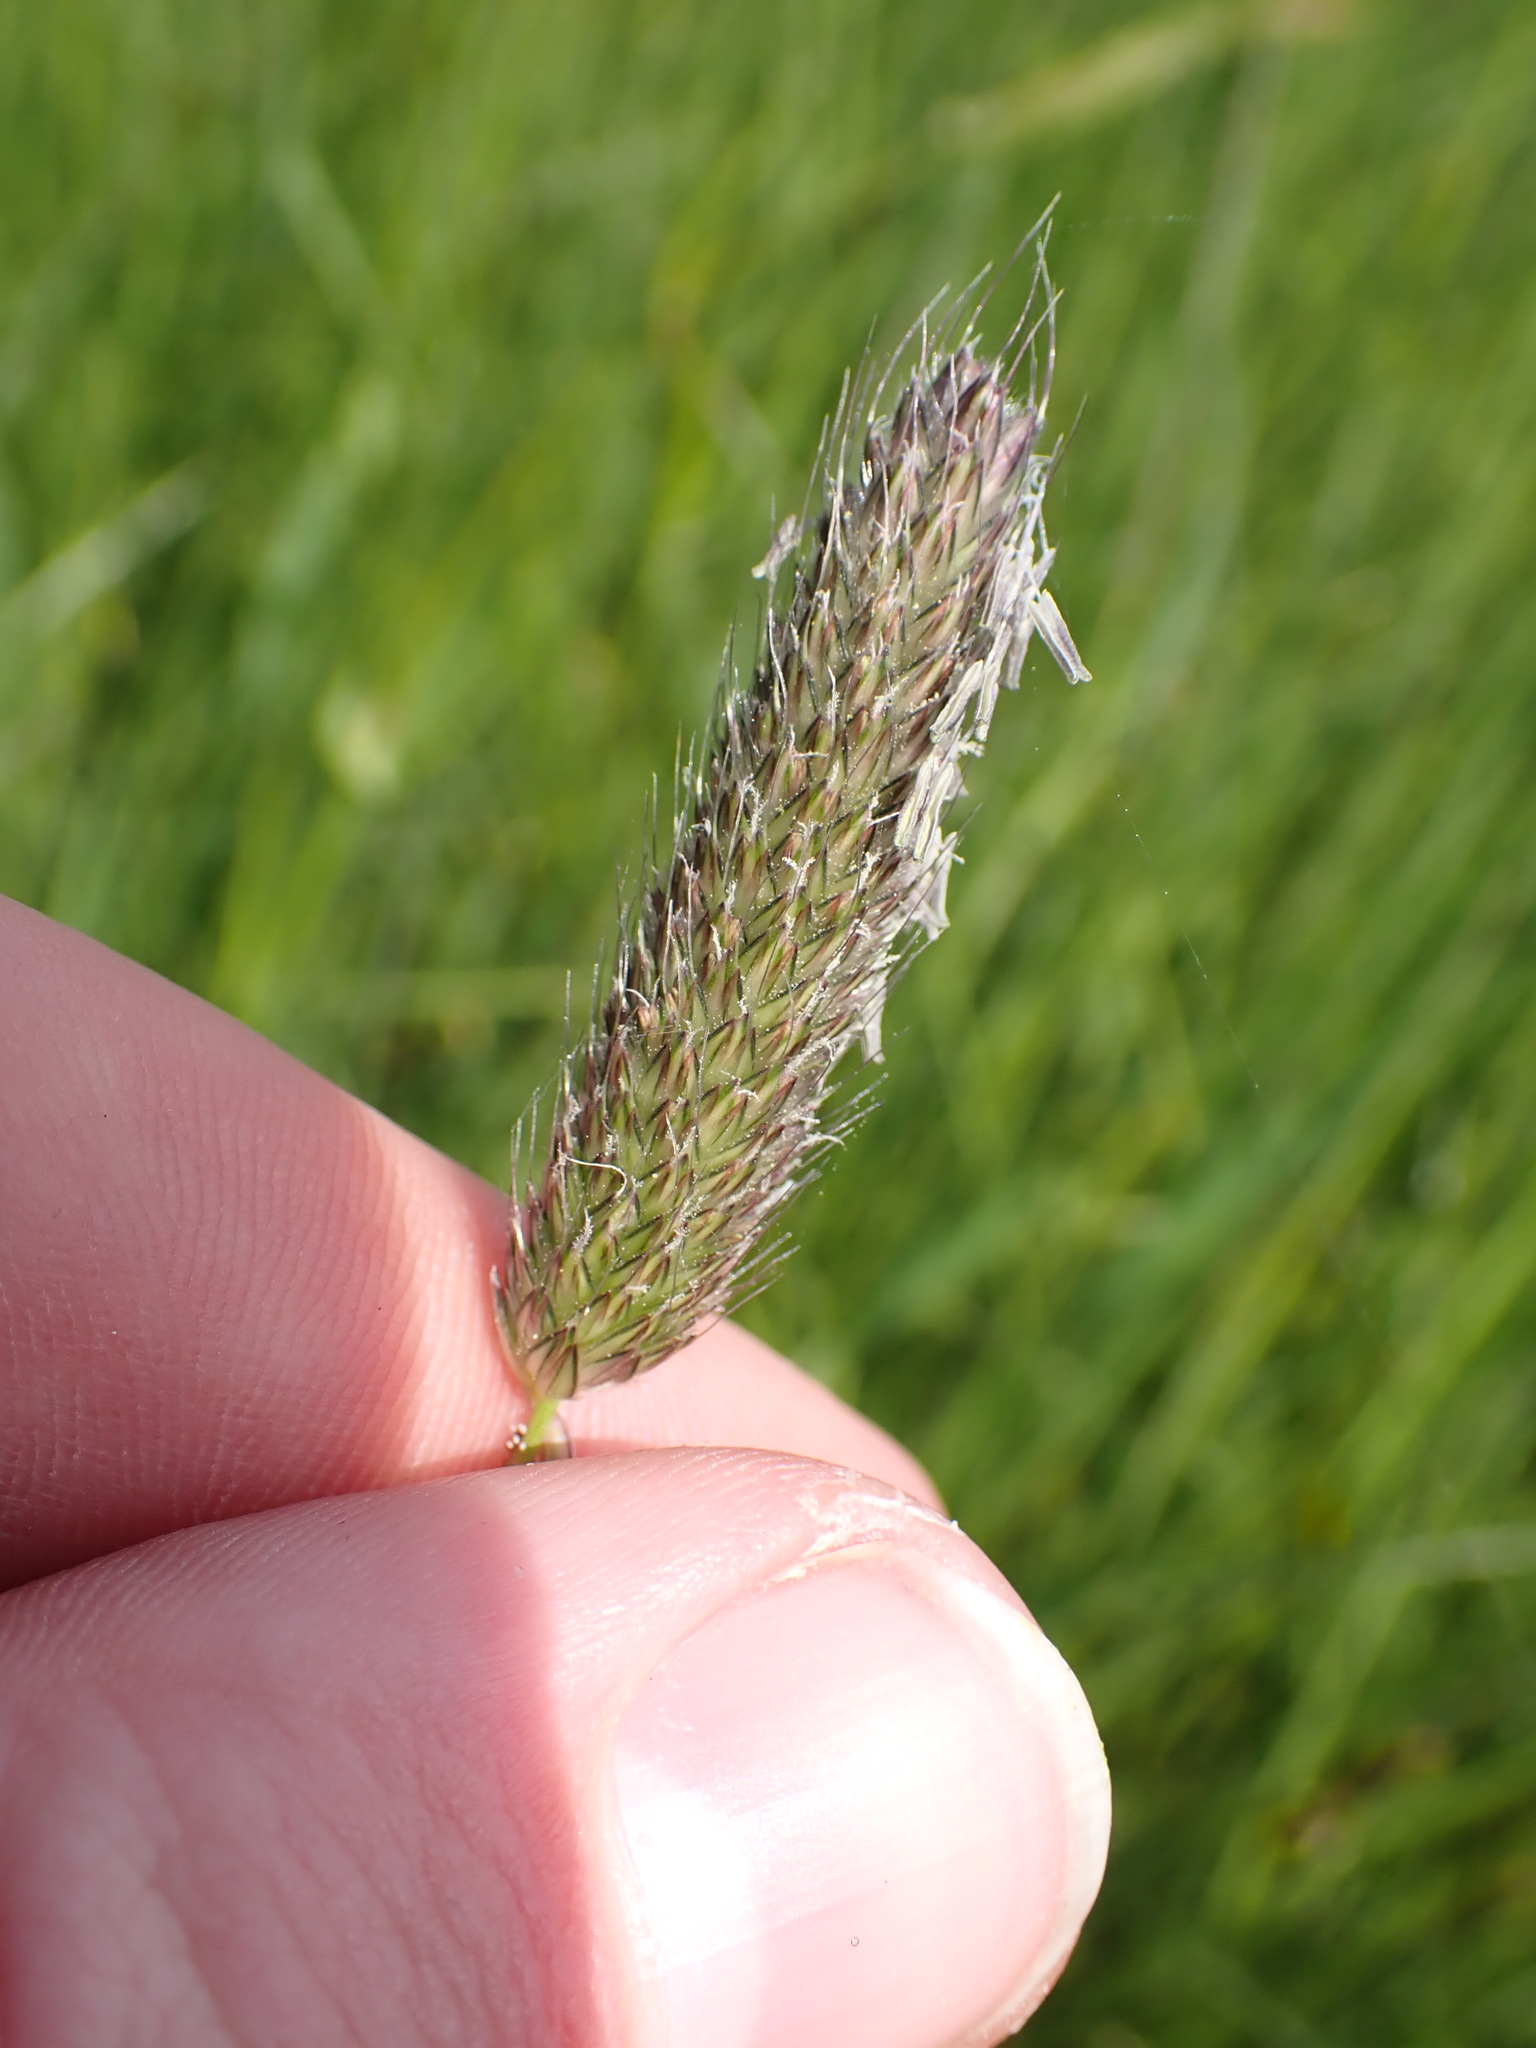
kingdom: Plantae
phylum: Tracheophyta
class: Liliopsida
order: Poales
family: Poaceae
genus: Alopecurus
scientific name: Alopecurus pratensis
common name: Meadow foxtail
